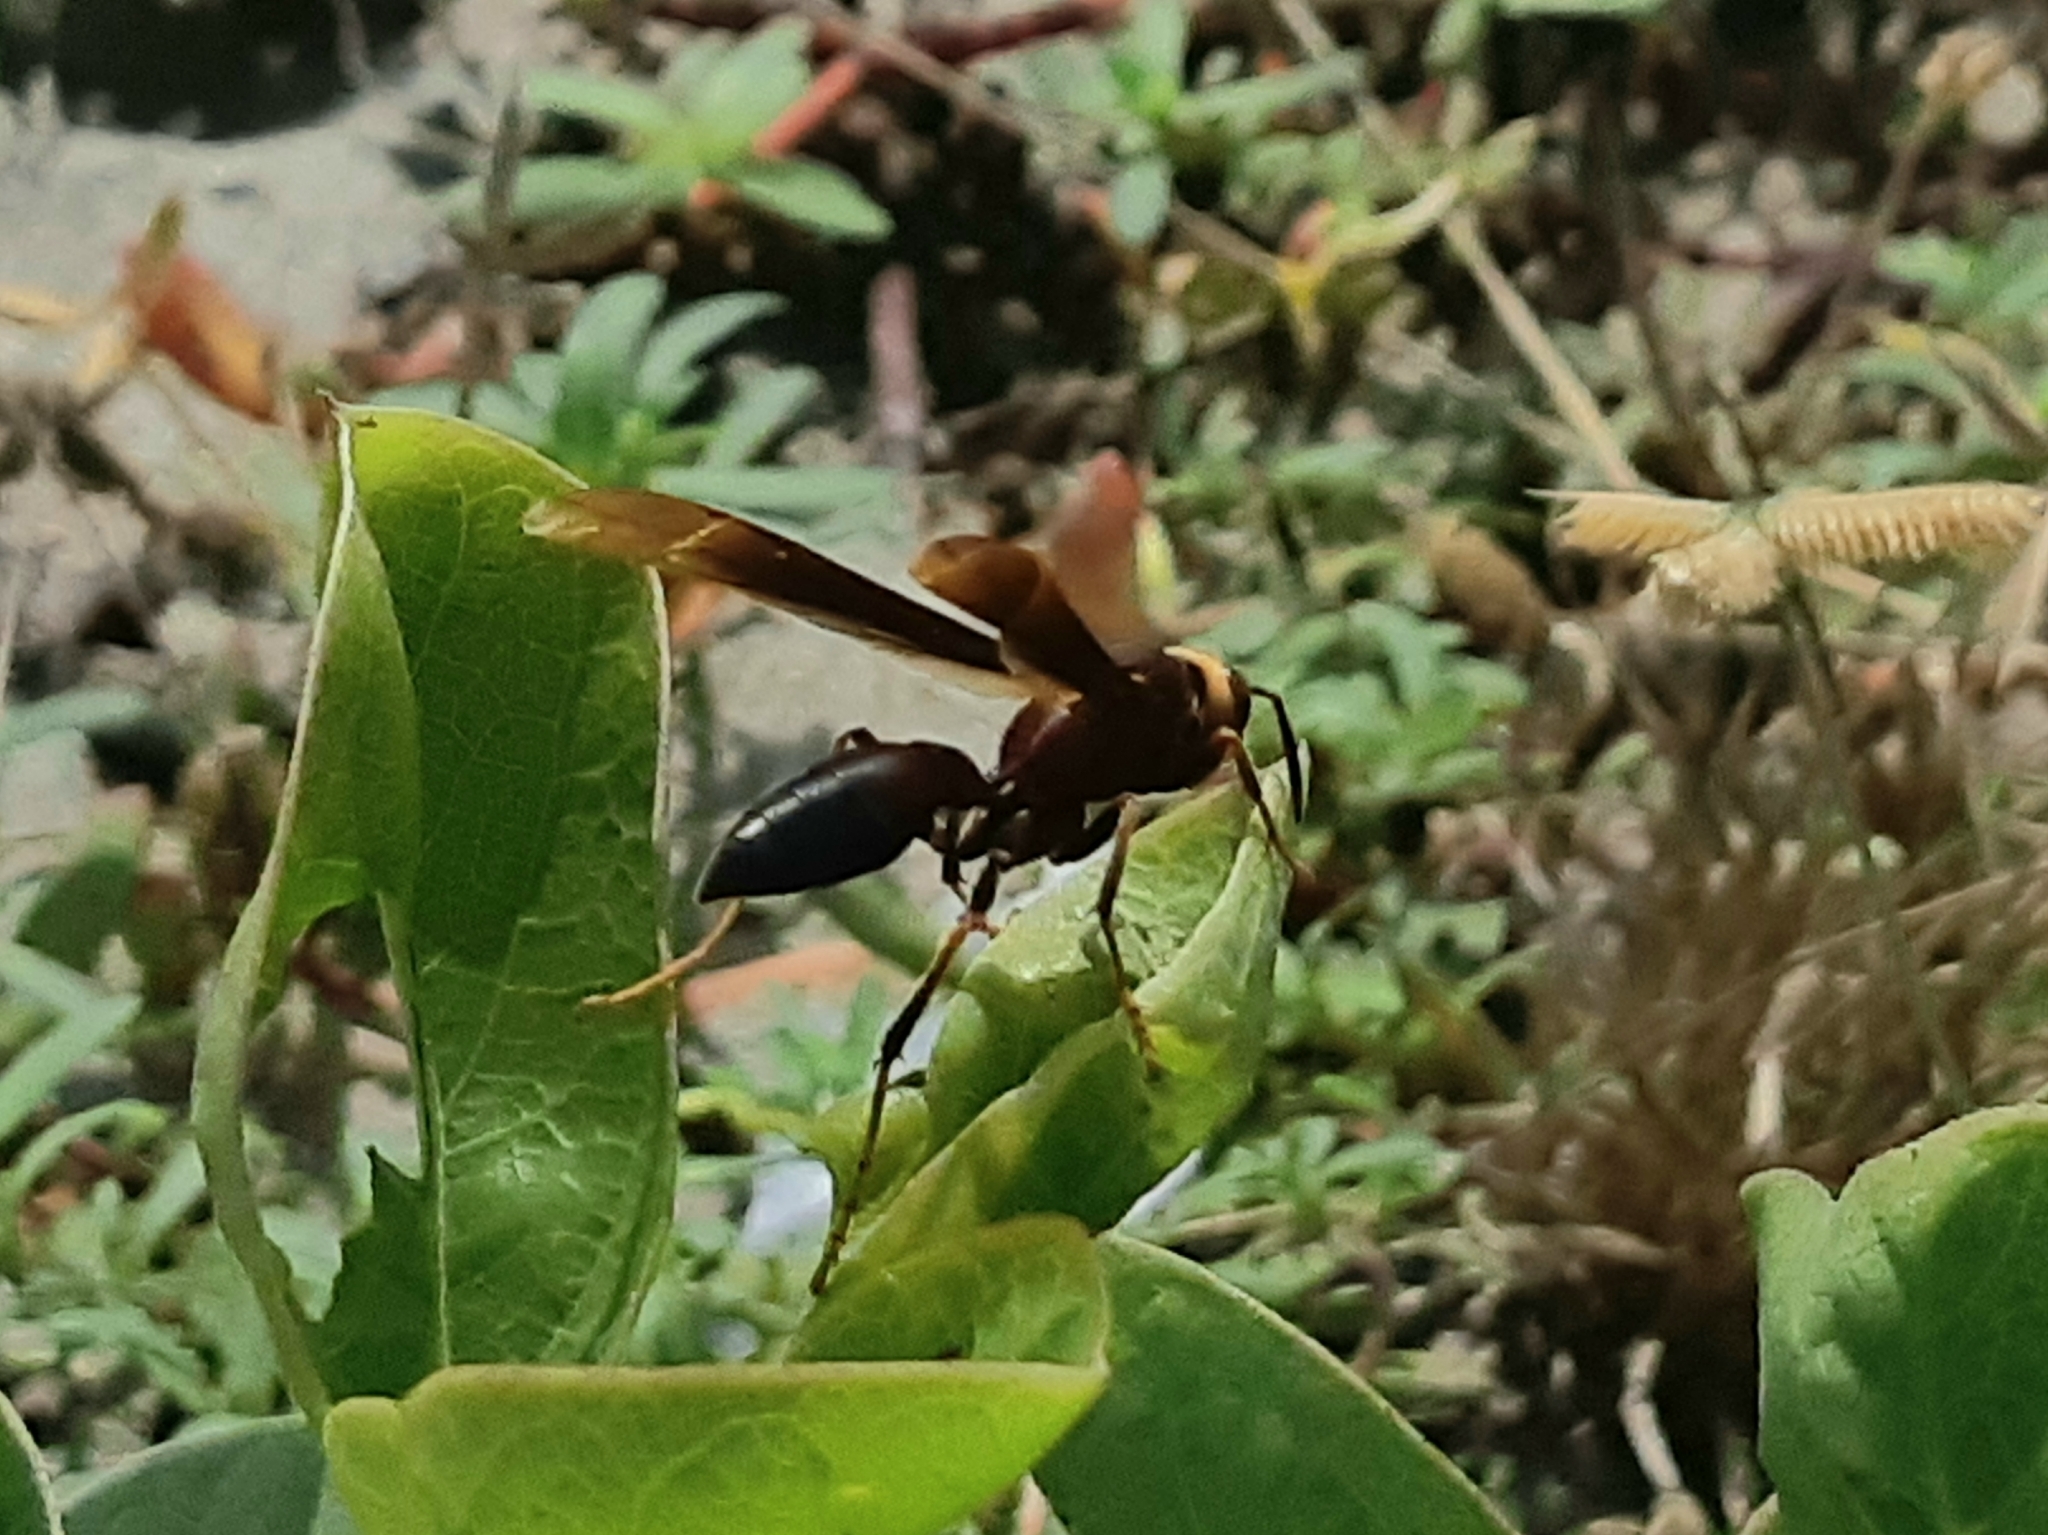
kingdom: Animalia
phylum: Arthropoda
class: Insecta
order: Hymenoptera
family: Eumenidae
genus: Polistes
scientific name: Polistes infuscatus
